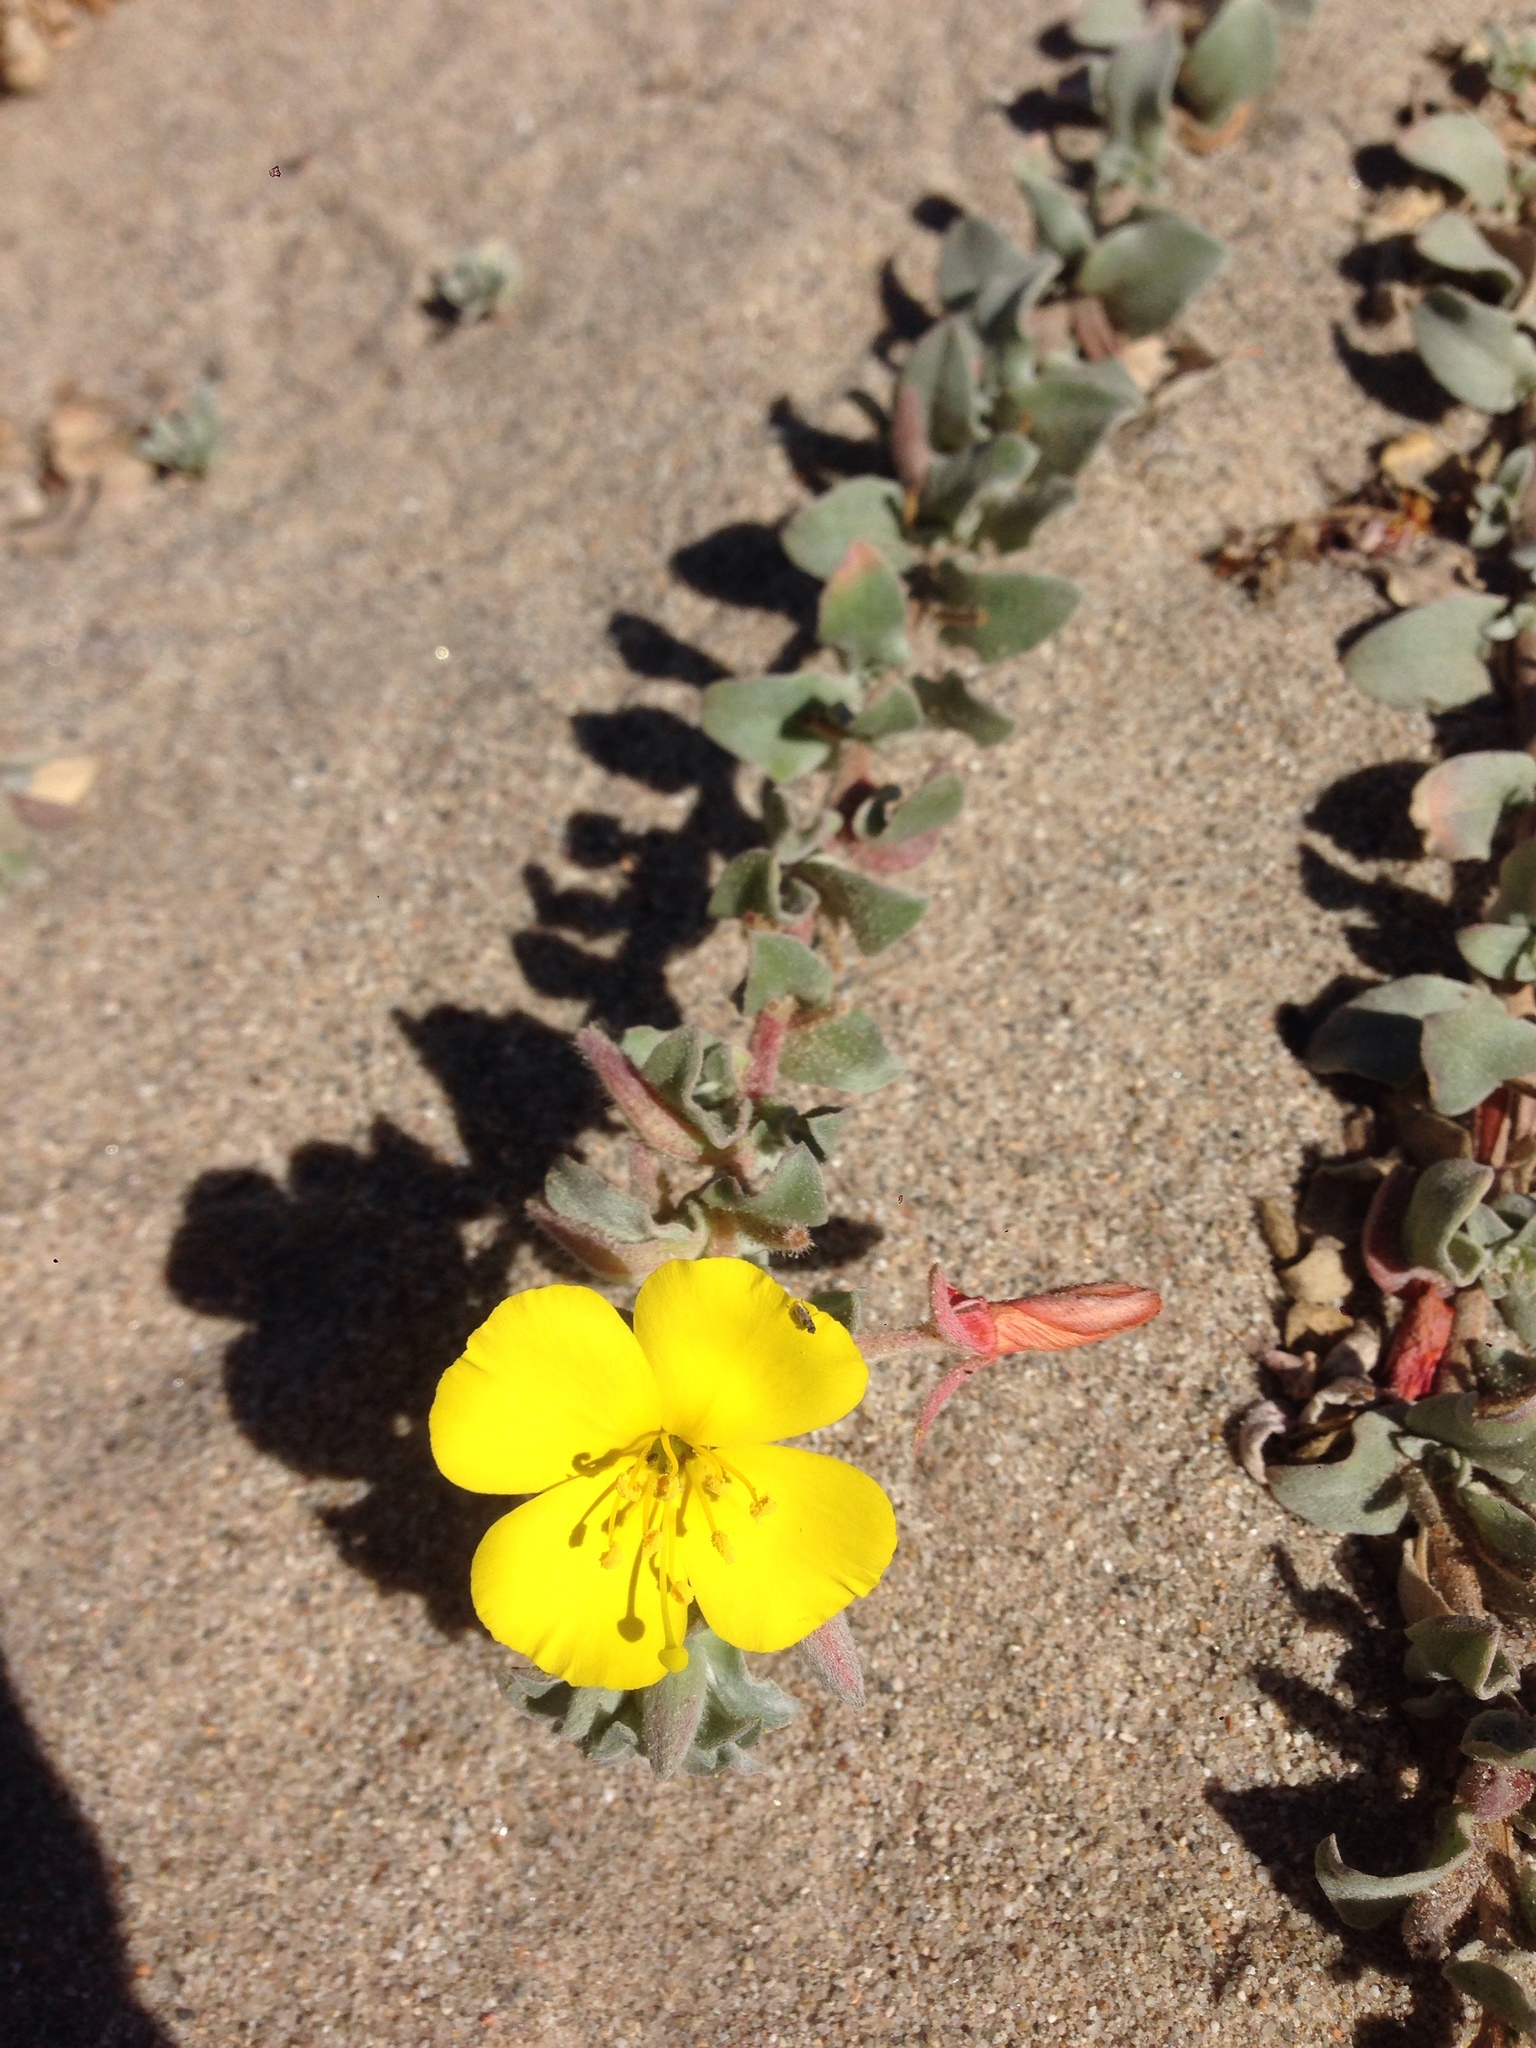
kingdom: Plantae
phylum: Tracheophyta
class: Magnoliopsida
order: Myrtales
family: Onagraceae
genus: Camissoniopsis
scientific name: Camissoniopsis cheiranthifolia
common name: Beach suncup
